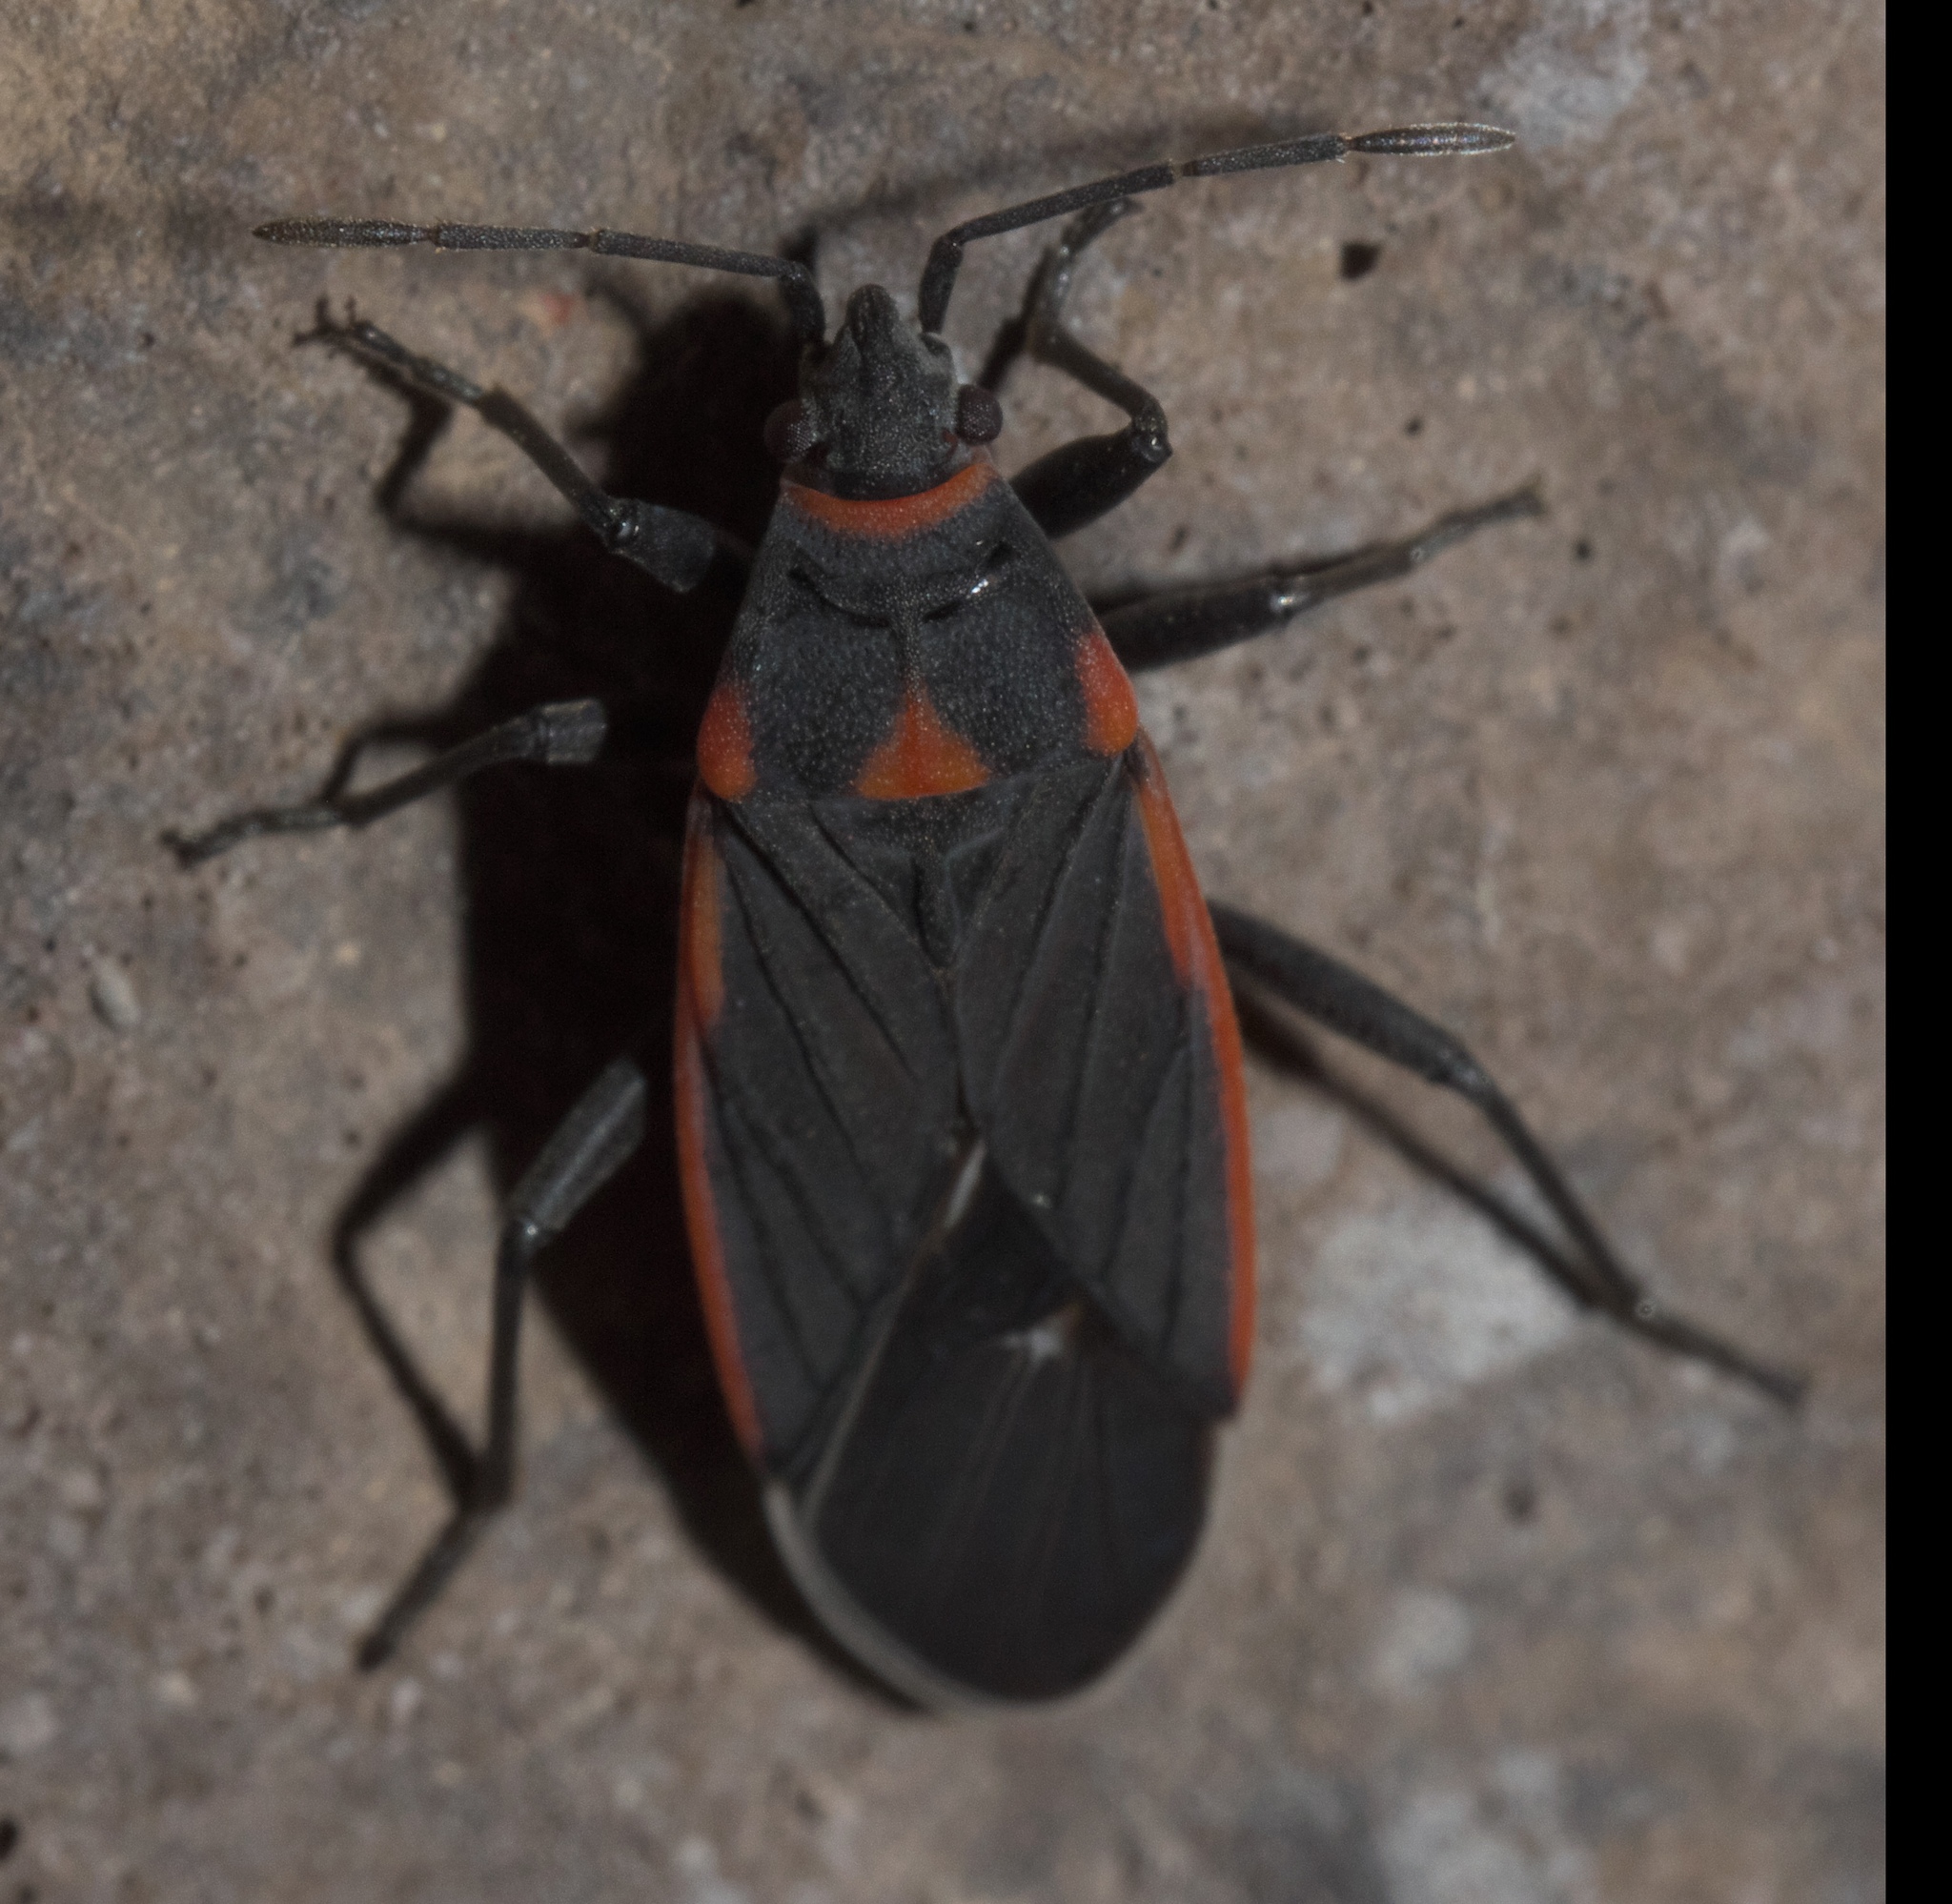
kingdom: Animalia
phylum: Arthropoda
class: Insecta
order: Hemiptera
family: Lygaeidae
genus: Melacoryphus
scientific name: Melacoryphus lateralis
